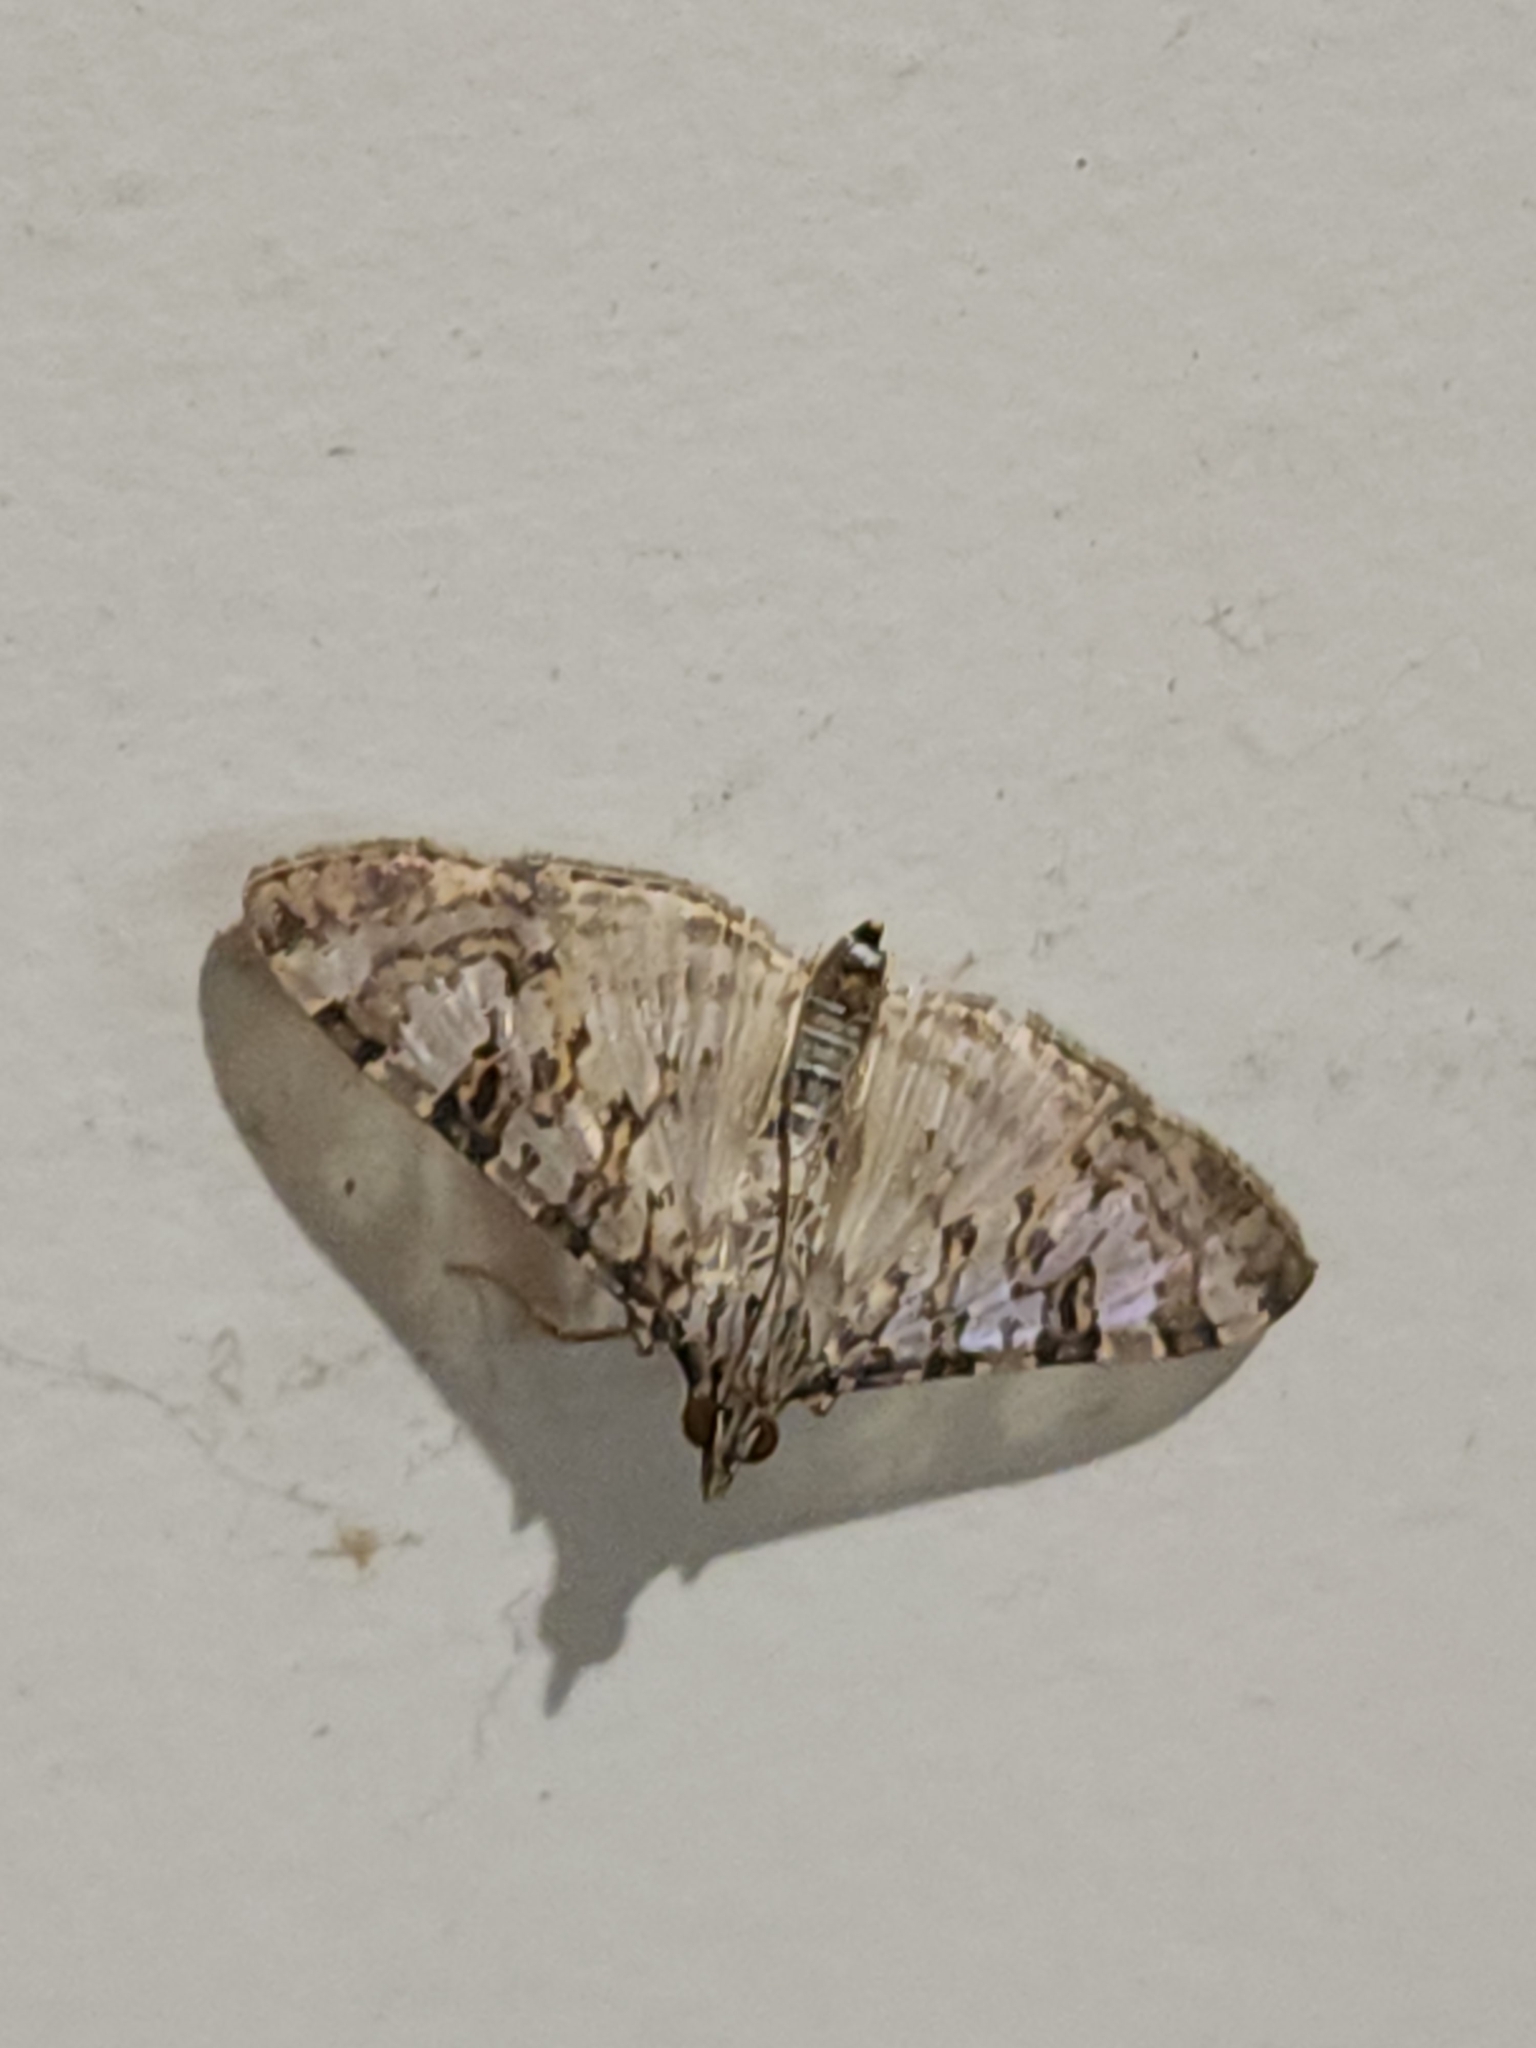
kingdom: Animalia
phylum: Arthropoda
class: Insecta
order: Lepidoptera
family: Crambidae
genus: Dysallacta
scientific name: Dysallacta negatalis
